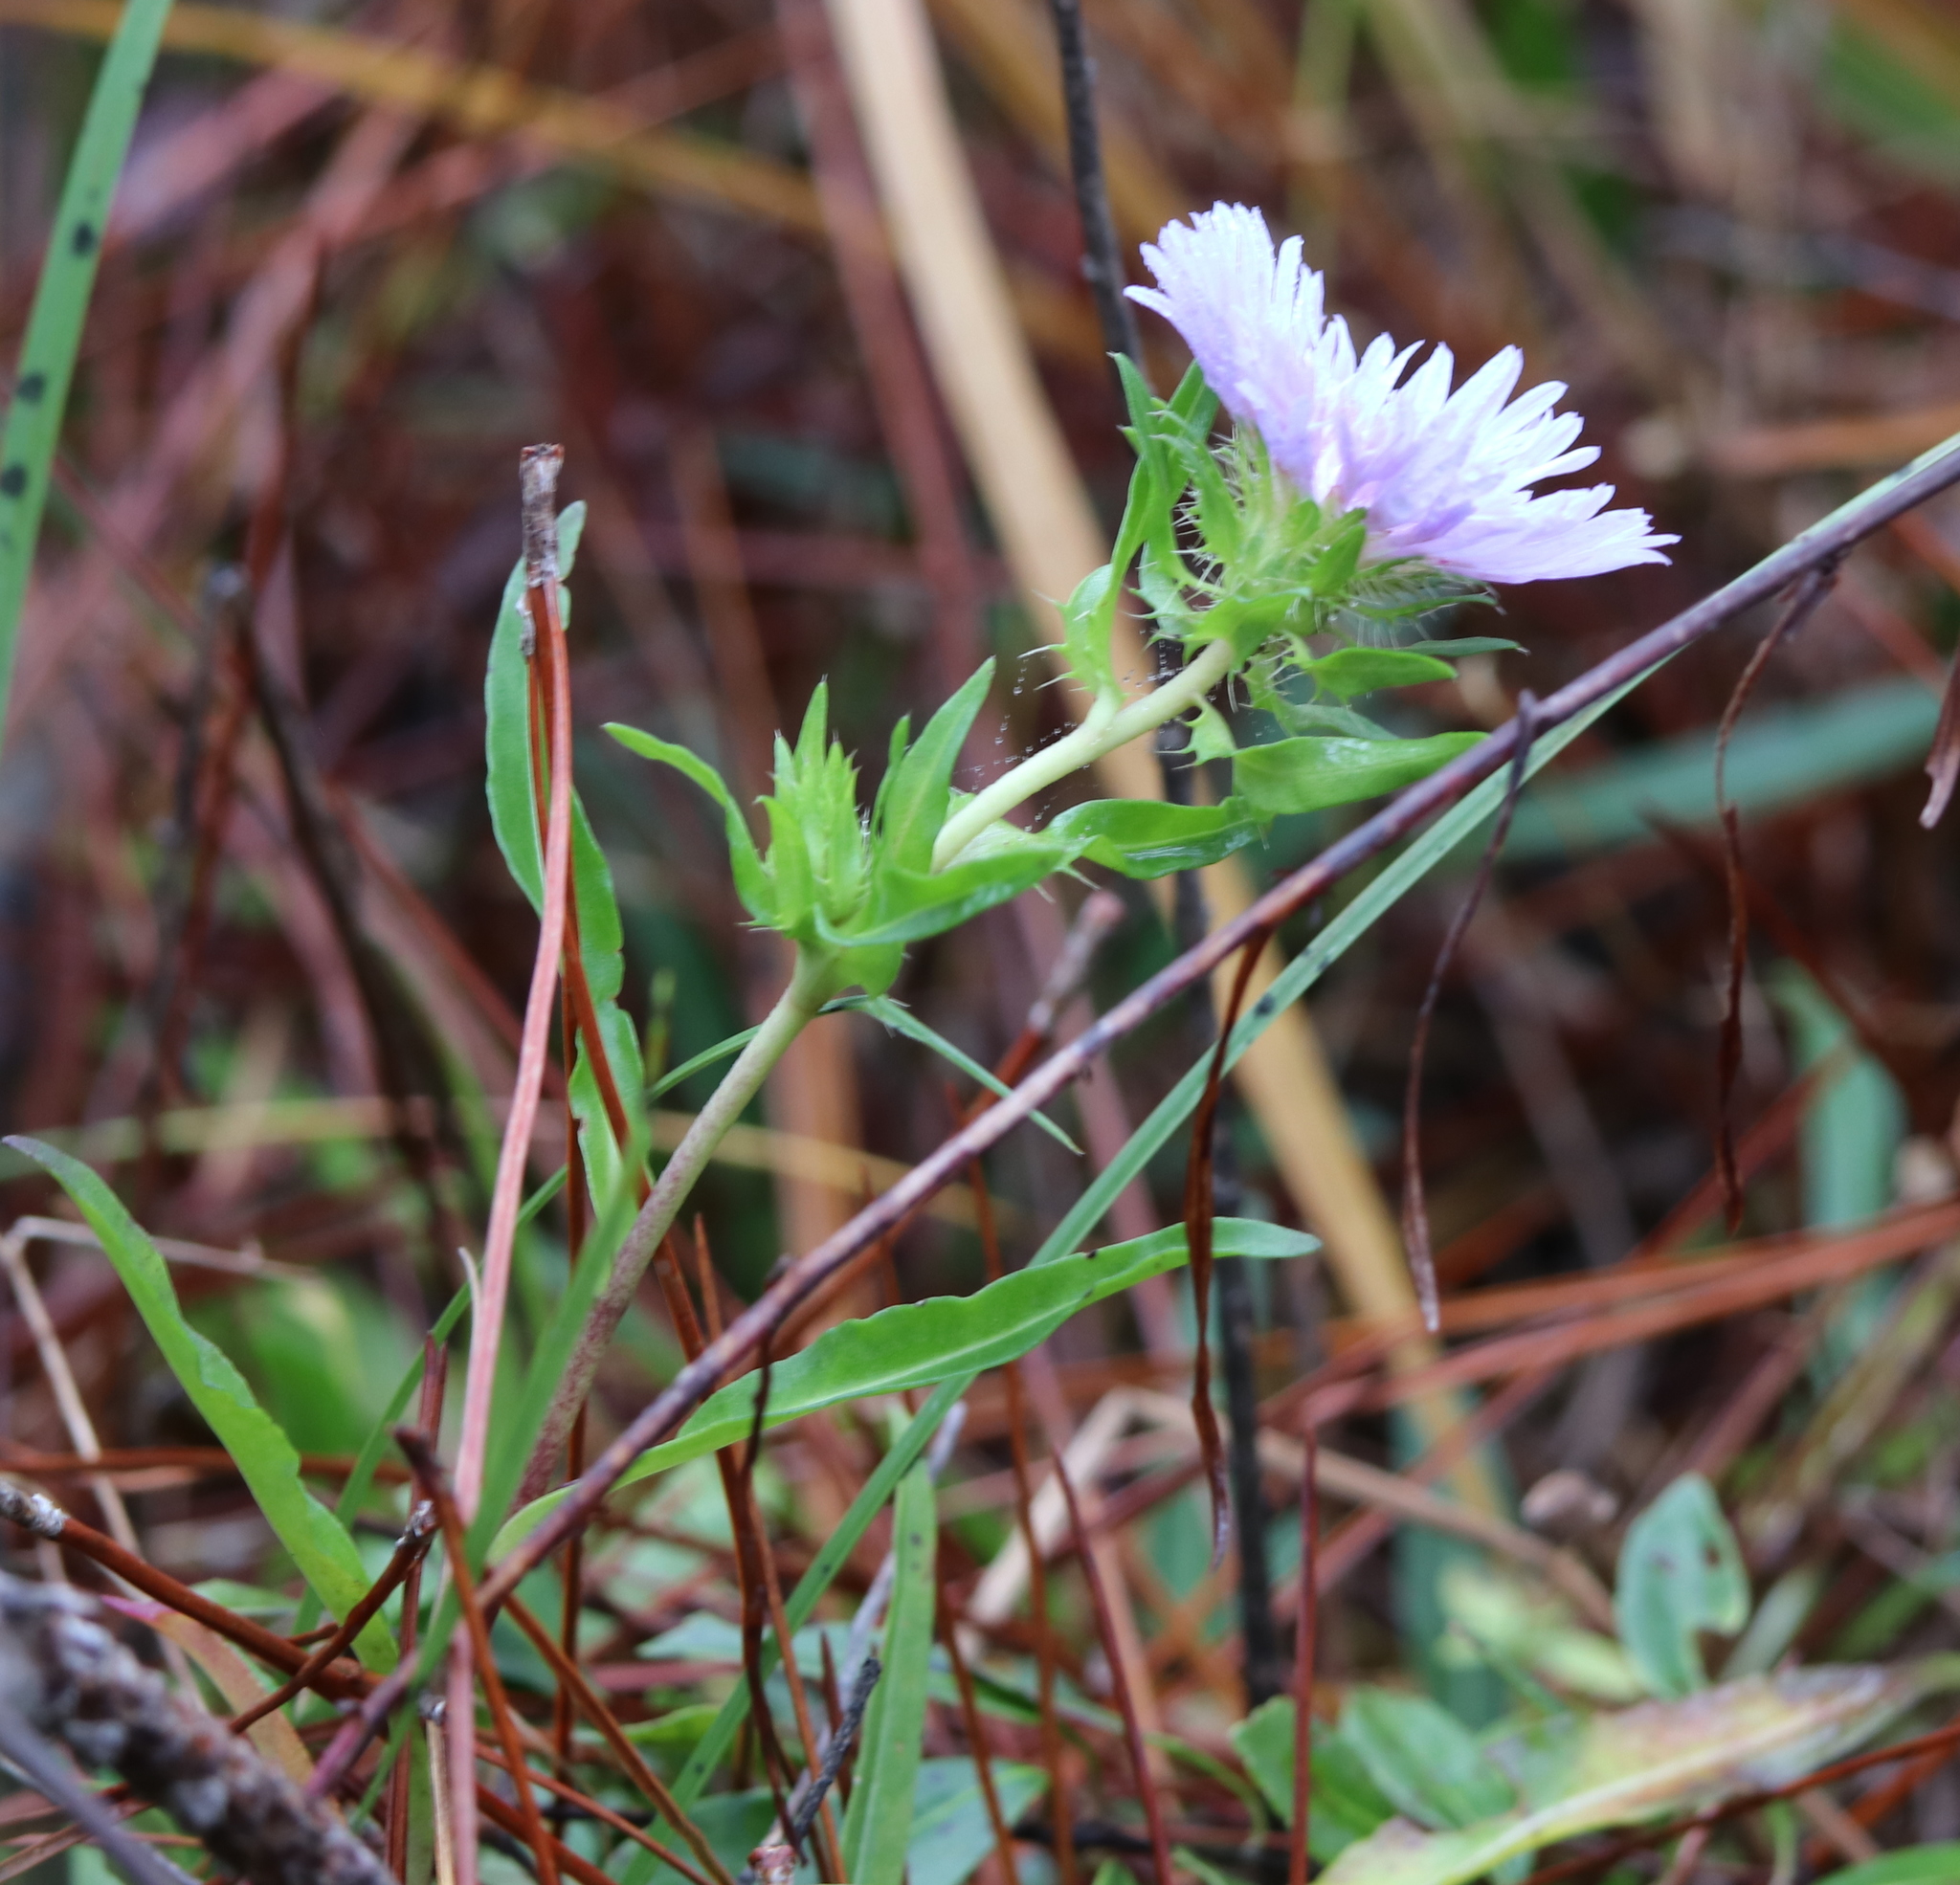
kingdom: Plantae
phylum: Tracheophyta
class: Magnoliopsida
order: Asterales
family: Asteraceae
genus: Stokesia
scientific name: Stokesia laevis
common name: Stokes'-aster
